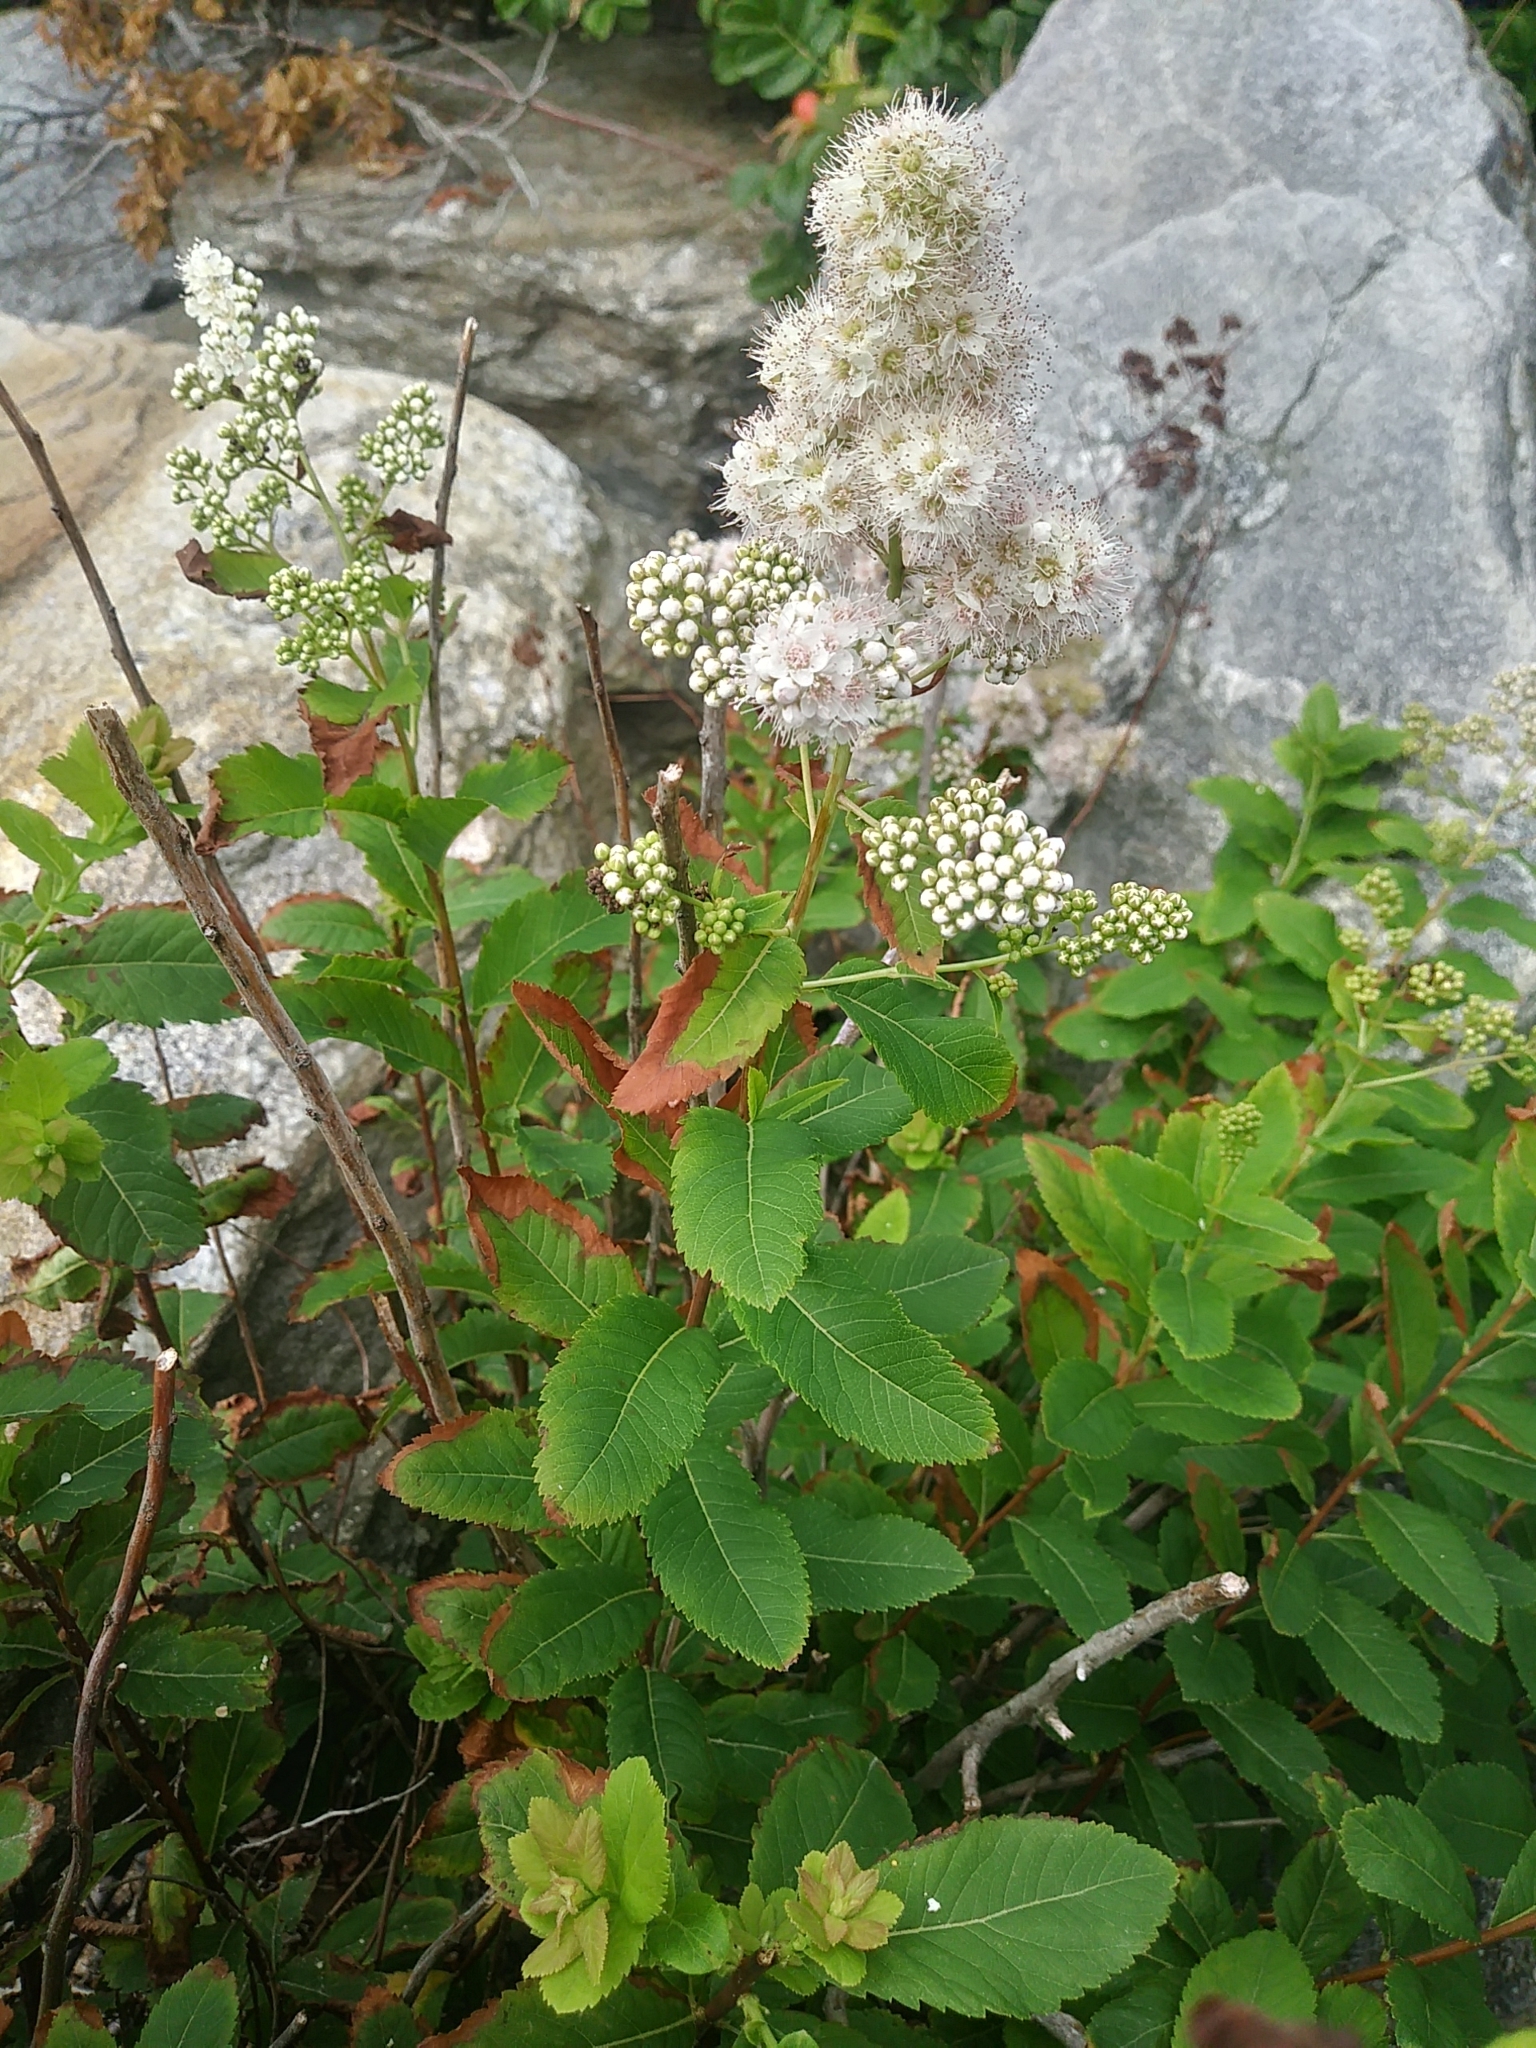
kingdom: Plantae
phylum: Tracheophyta
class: Magnoliopsida
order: Rosales
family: Rosaceae
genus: Spiraea
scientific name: Spiraea alba
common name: Pale bridewort
